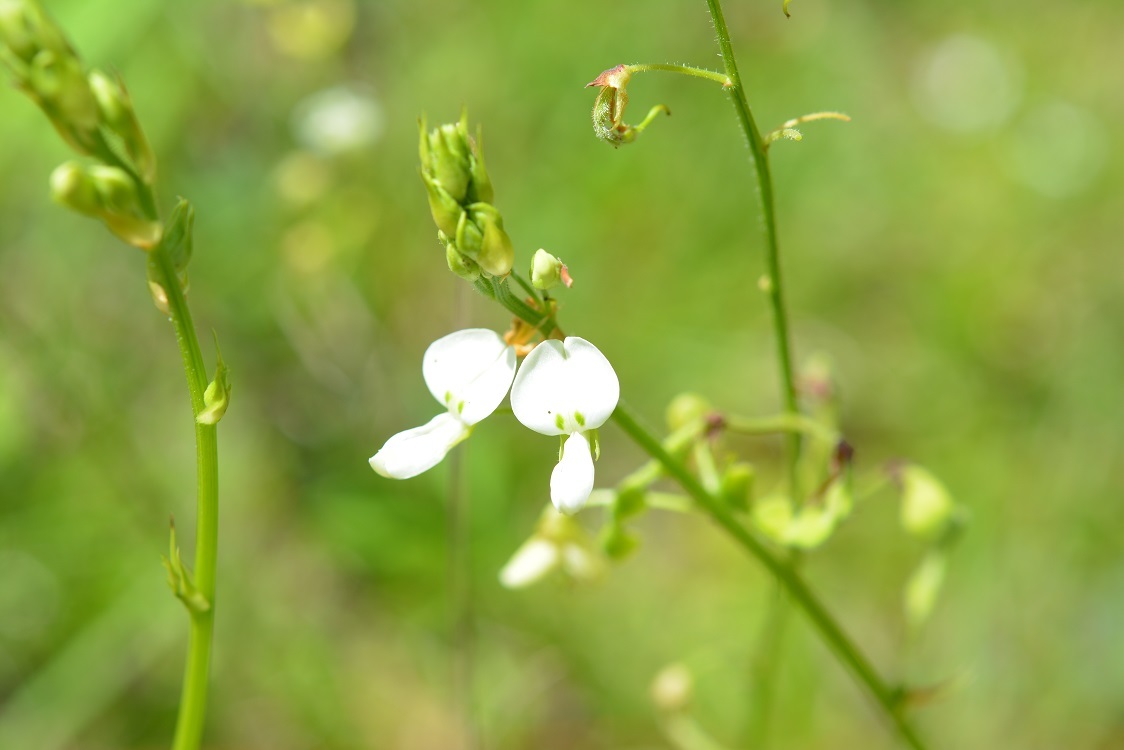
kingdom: Plantae
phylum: Tracheophyta
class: Magnoliopsida
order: Fabales
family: Fabaceae
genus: Desmodium
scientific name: Desmodium macrostachyum
